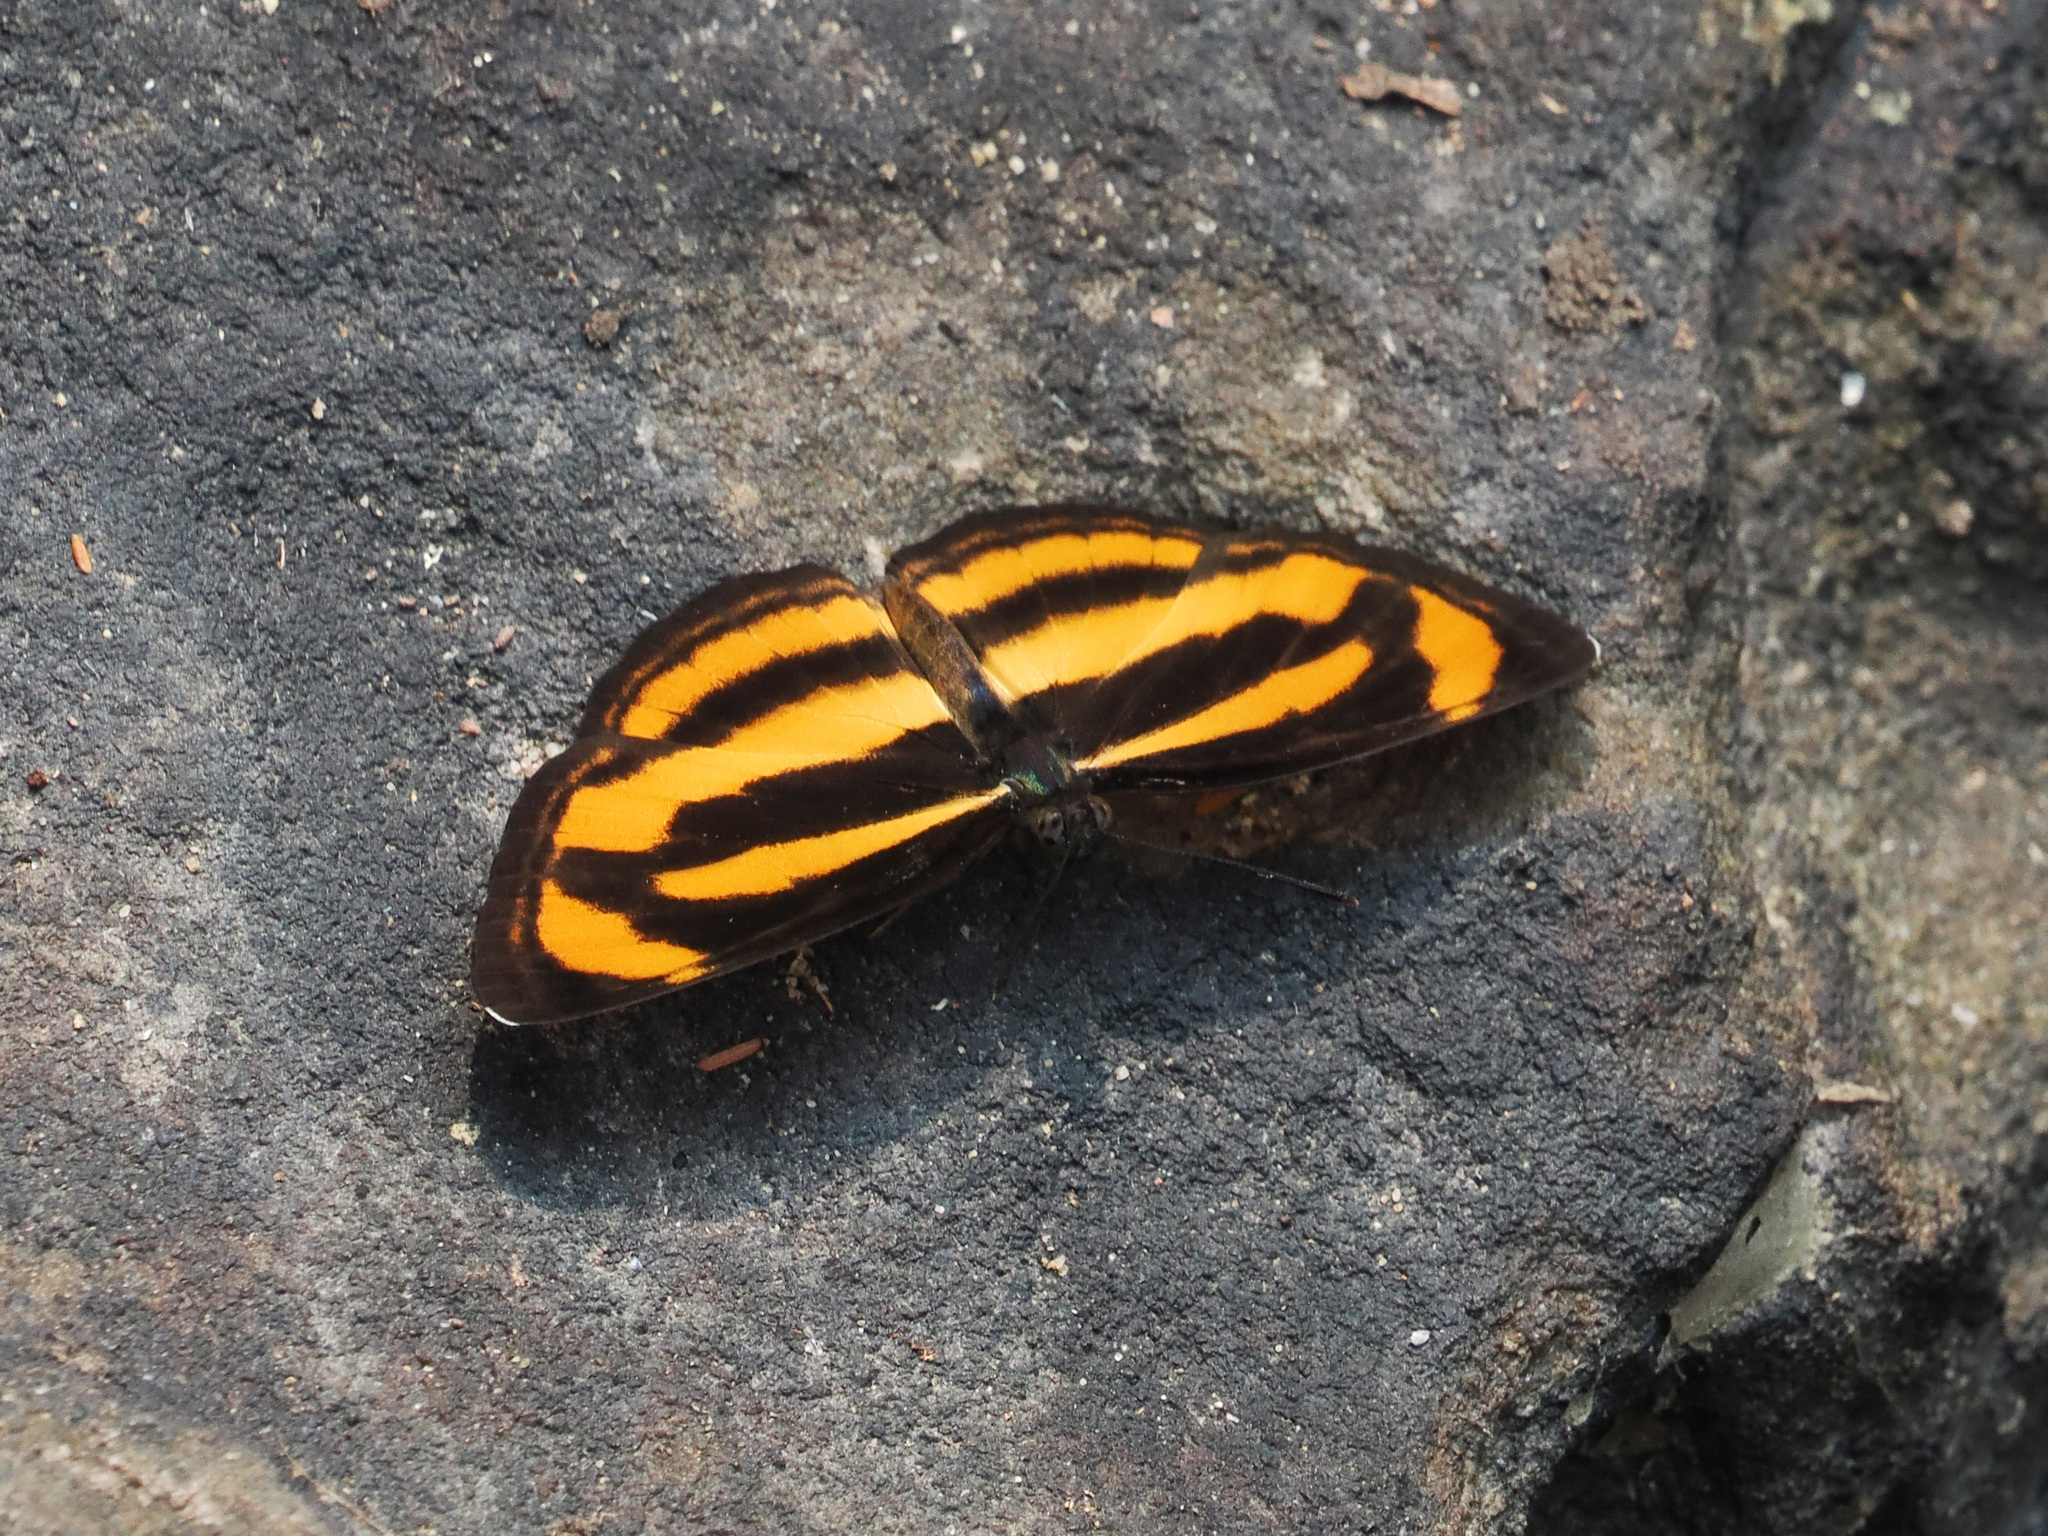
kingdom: Animalia
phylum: Arthropoda
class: Insecta
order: Lepidoptera
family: Nymphalidae
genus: Pantoporia
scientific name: Pantoporia hordonia
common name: Common lascar
